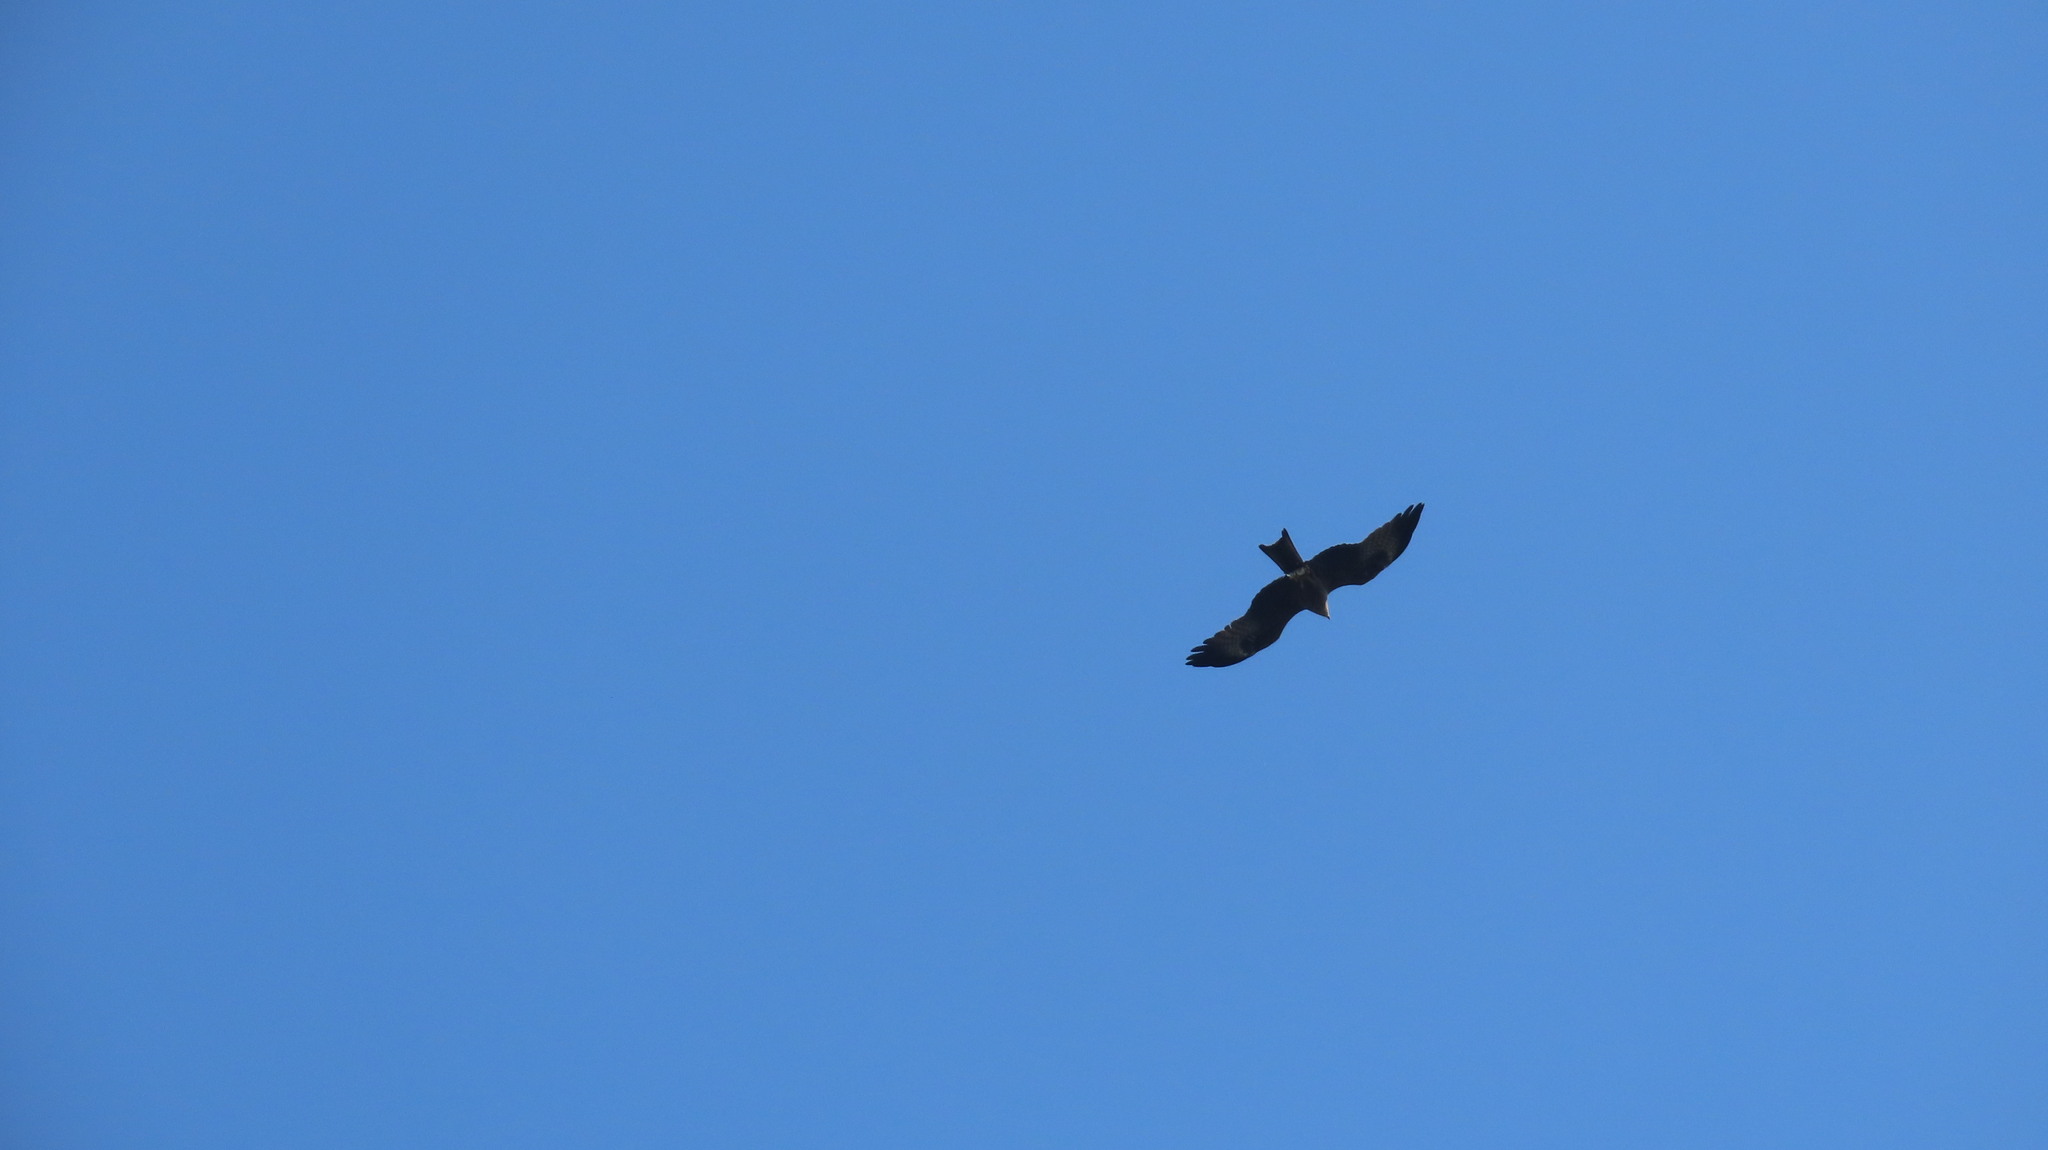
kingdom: Animalia
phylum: Chordata
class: Aves
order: Accipitriformes
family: Accipitridae
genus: Milvus
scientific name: Milvus migrans
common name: Black kite
